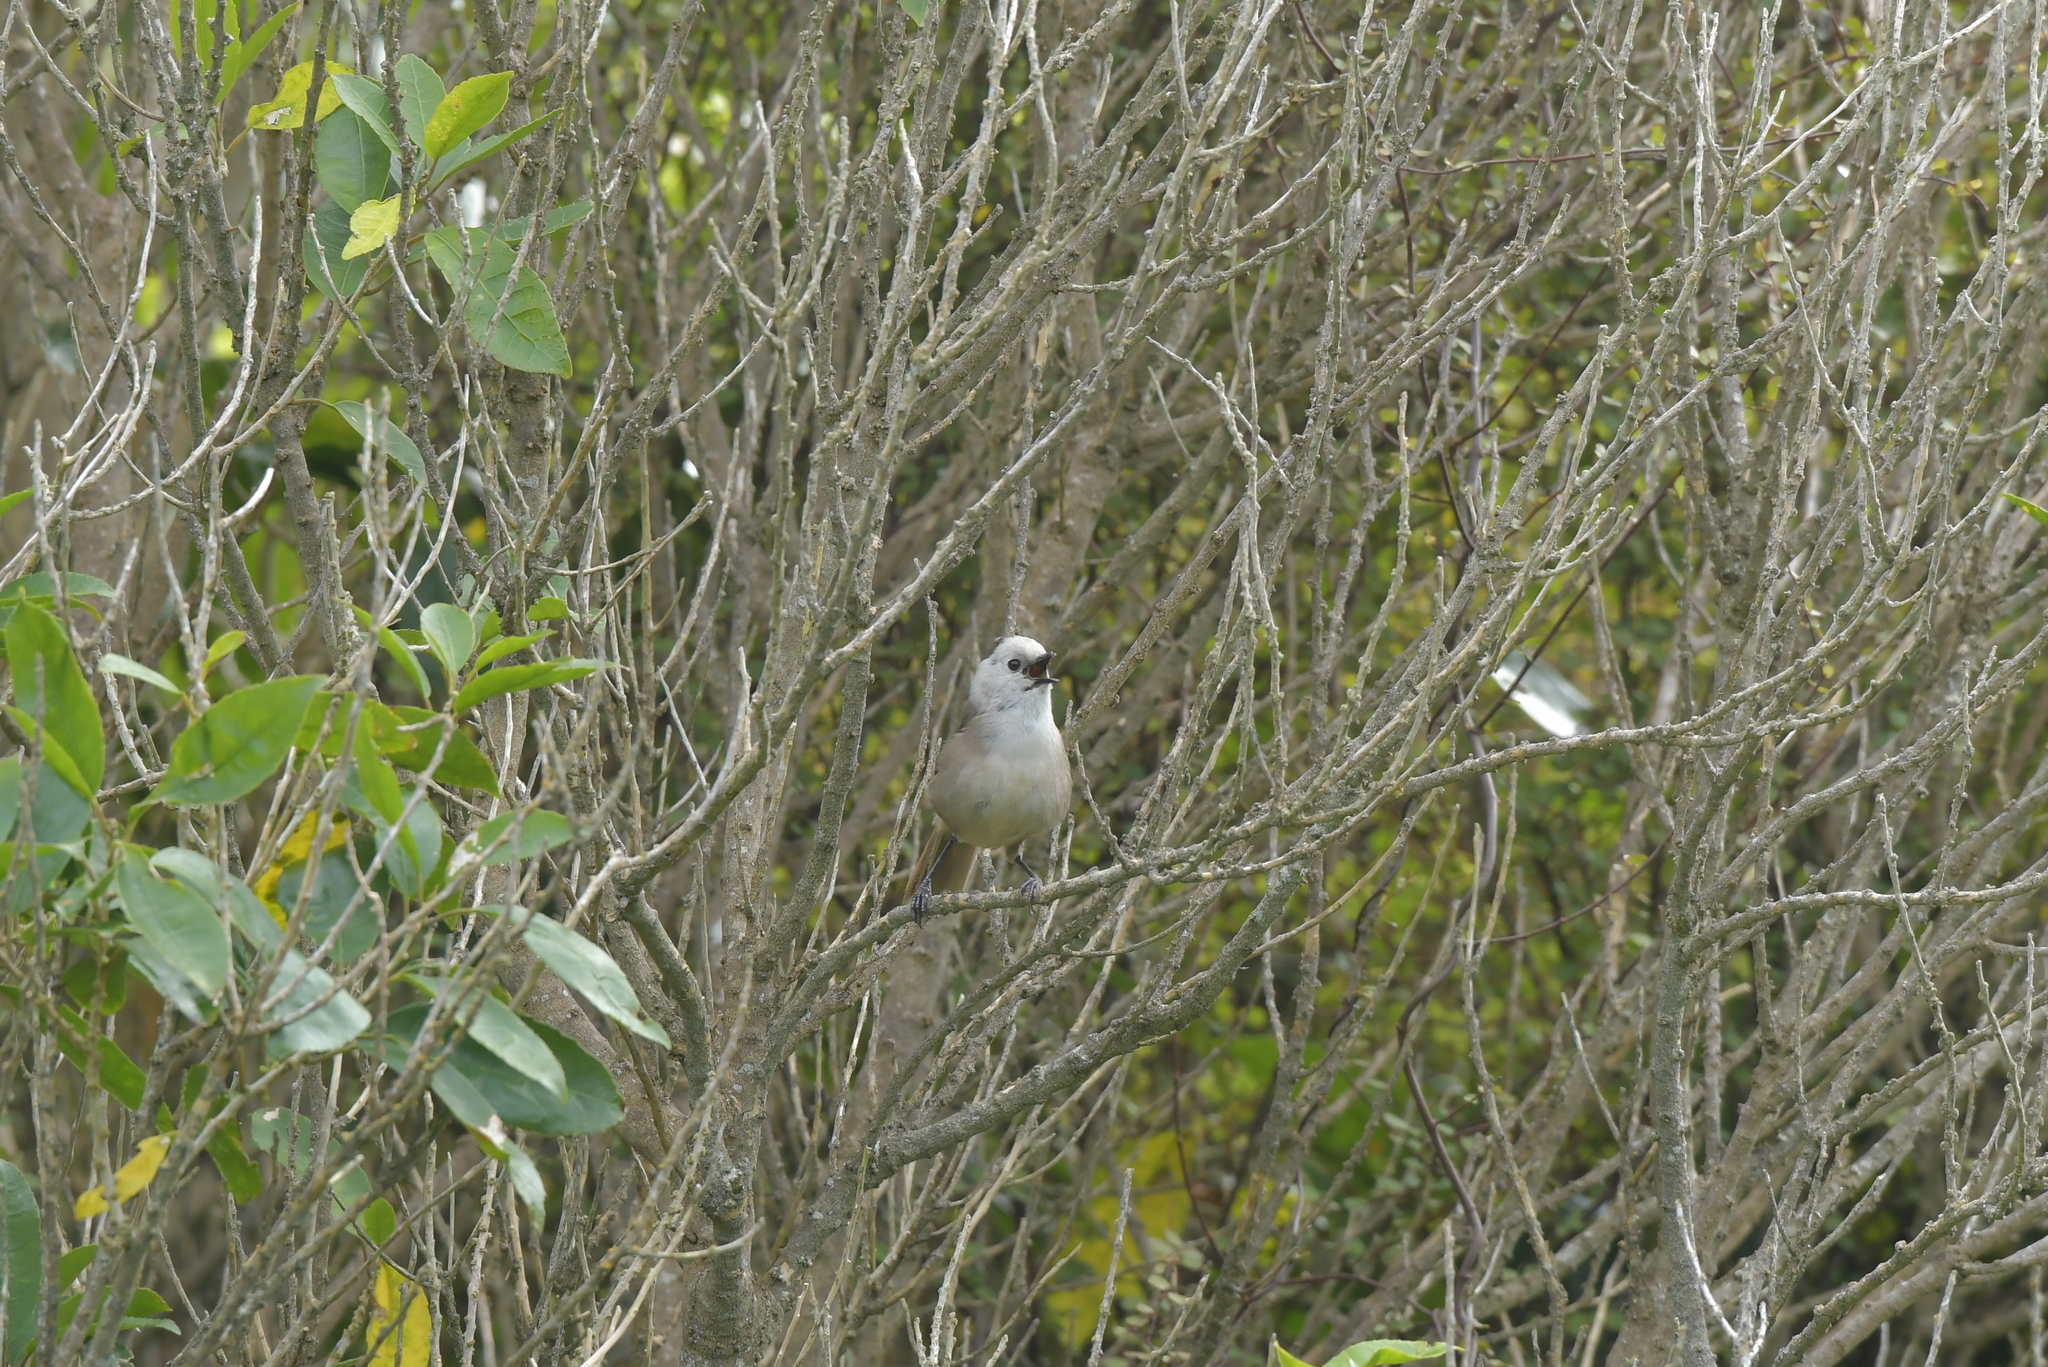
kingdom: Animalia
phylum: Chordata
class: Aves
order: Passeriformes
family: Acanthizidae
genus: Mohoua
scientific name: Mohoua albicilla
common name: Whitehead
